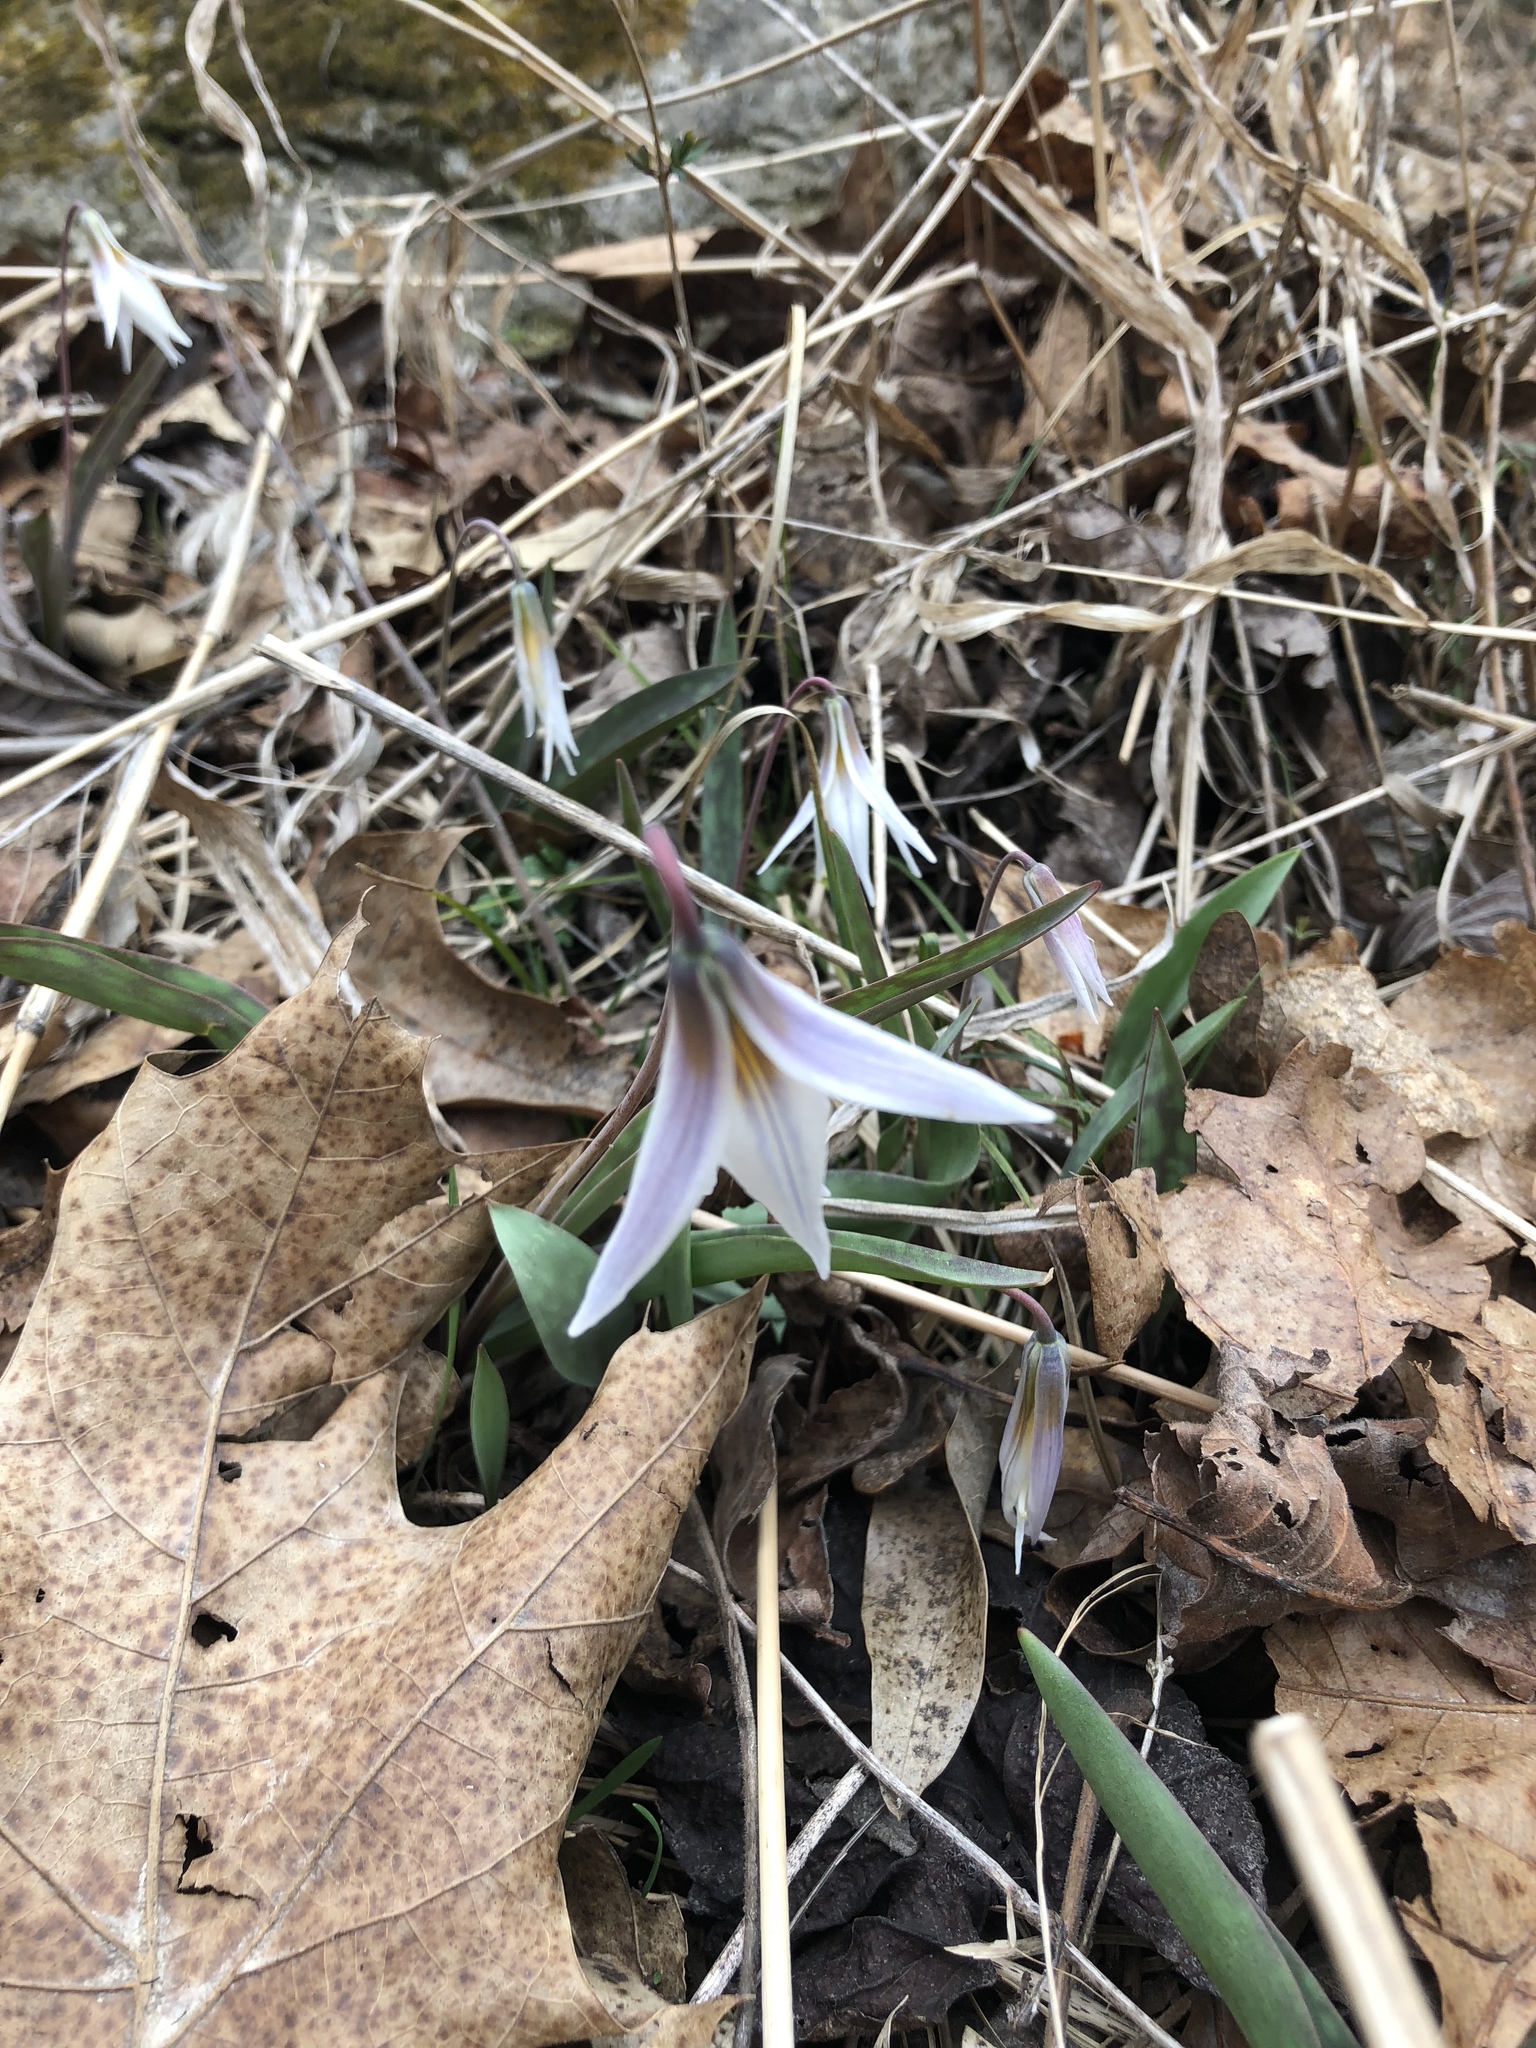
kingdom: Plantae
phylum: Tracheophyta
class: Liliopsida
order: Liliales
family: Liliaceae
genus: Erythronium
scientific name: Erythronium albidum
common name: White trout-lily
